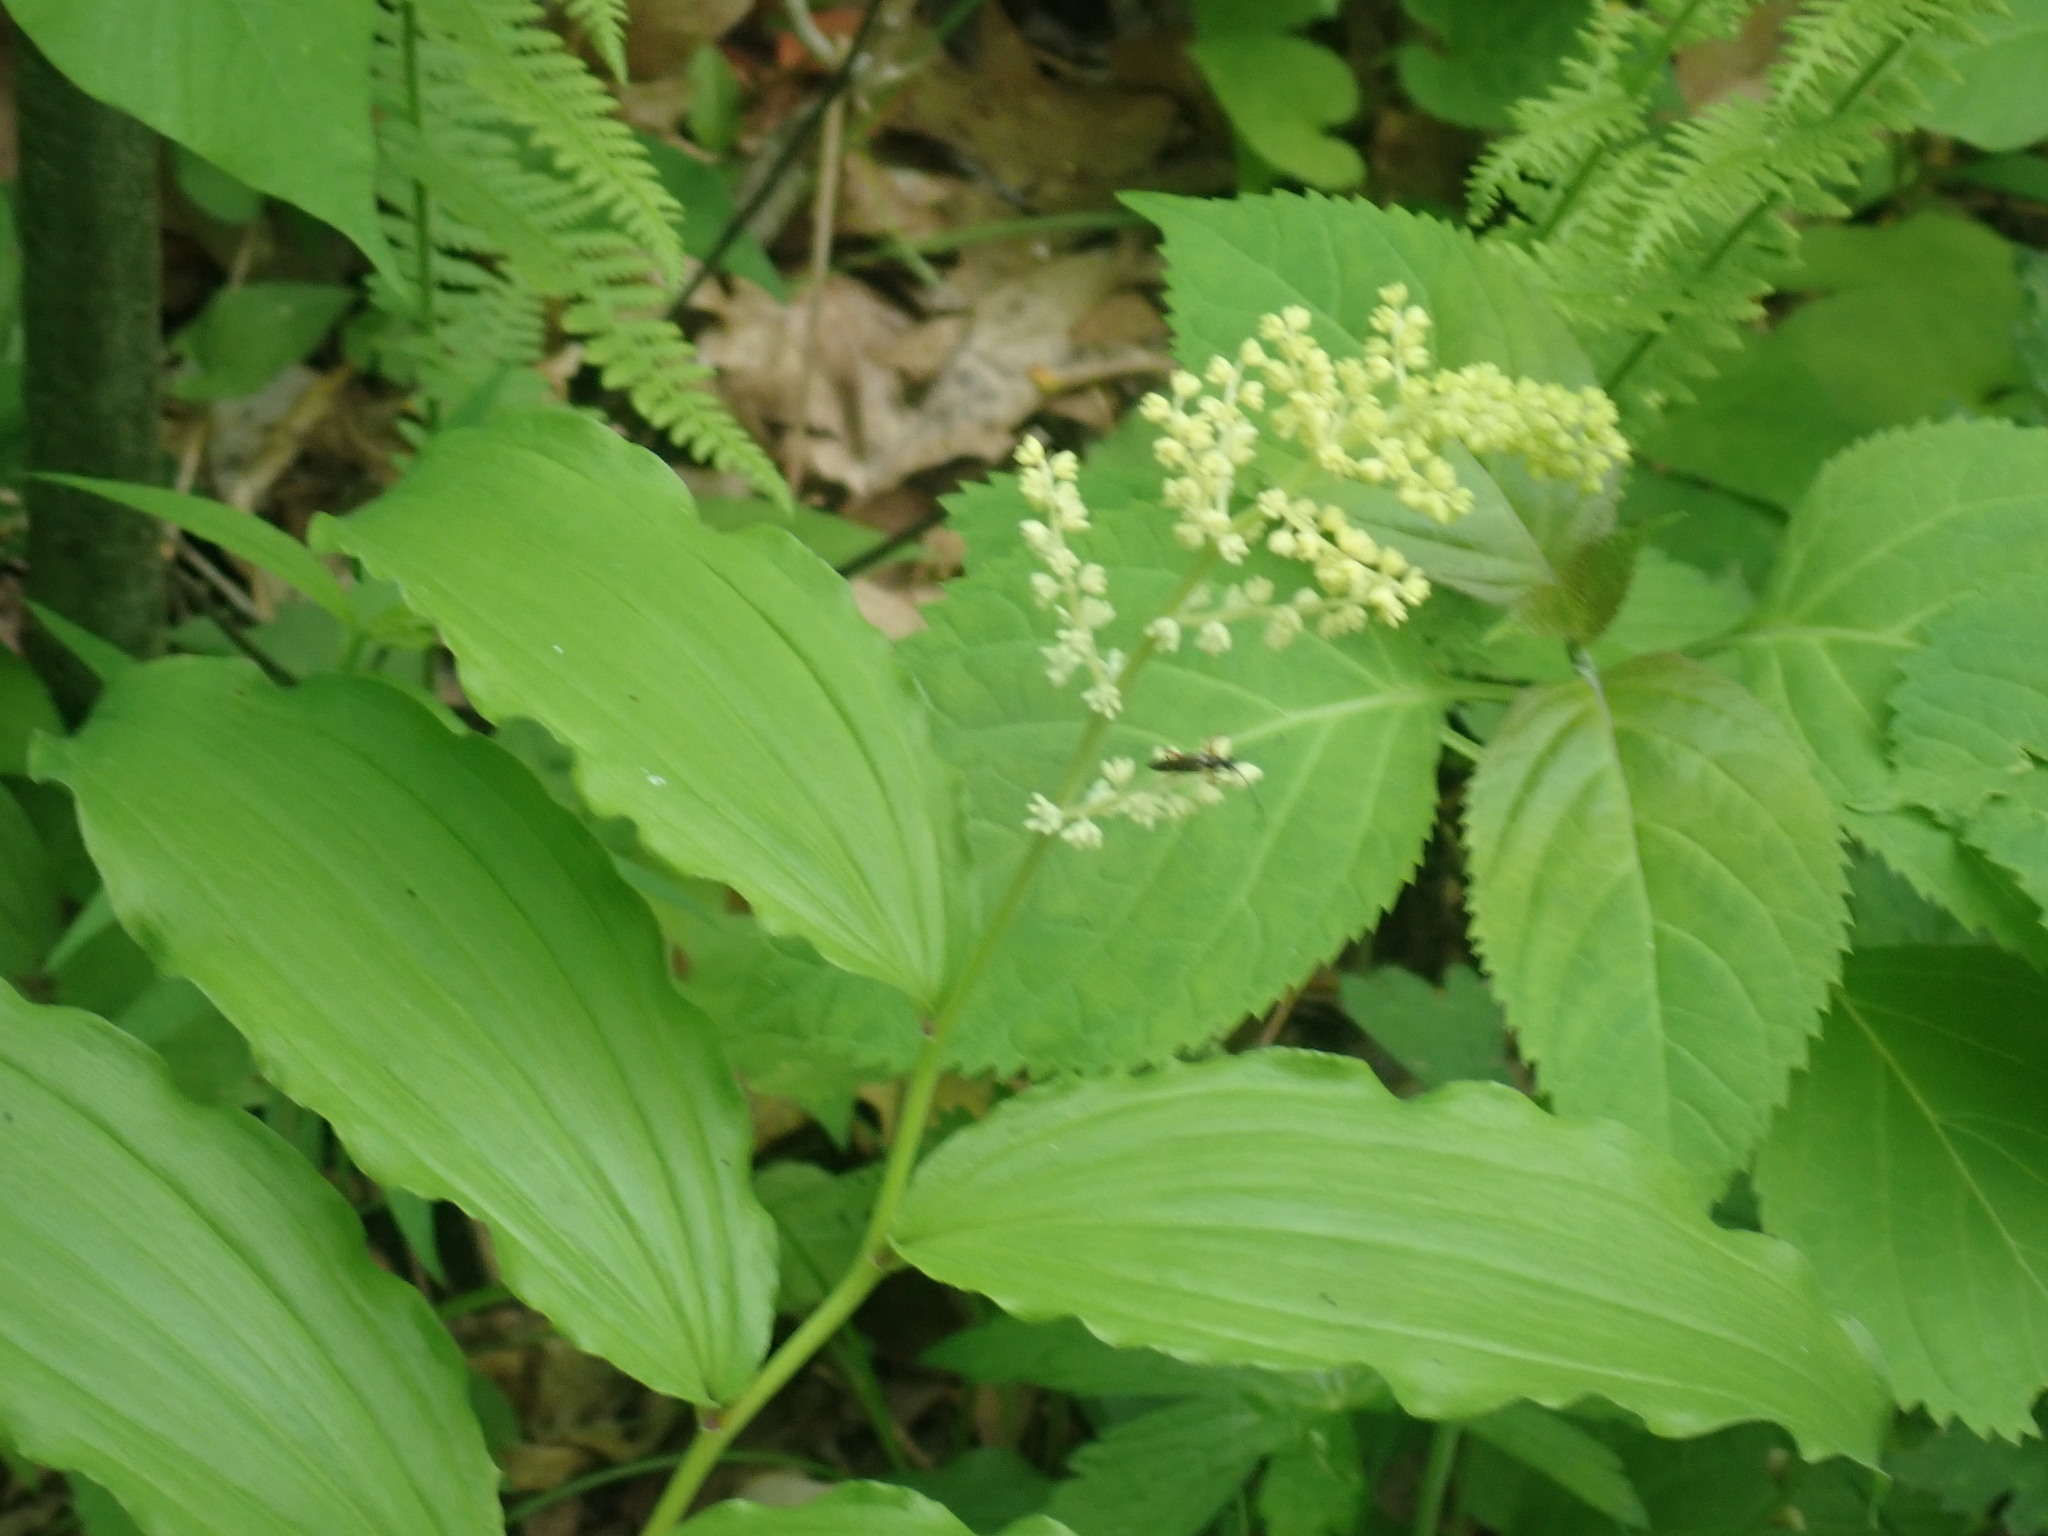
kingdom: Plantae
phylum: Tracheophyta
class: Liliopsida
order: Asparagales
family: Asparagaceae
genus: Maianthemum
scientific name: Maianthemum racemosum
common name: False spikenard
